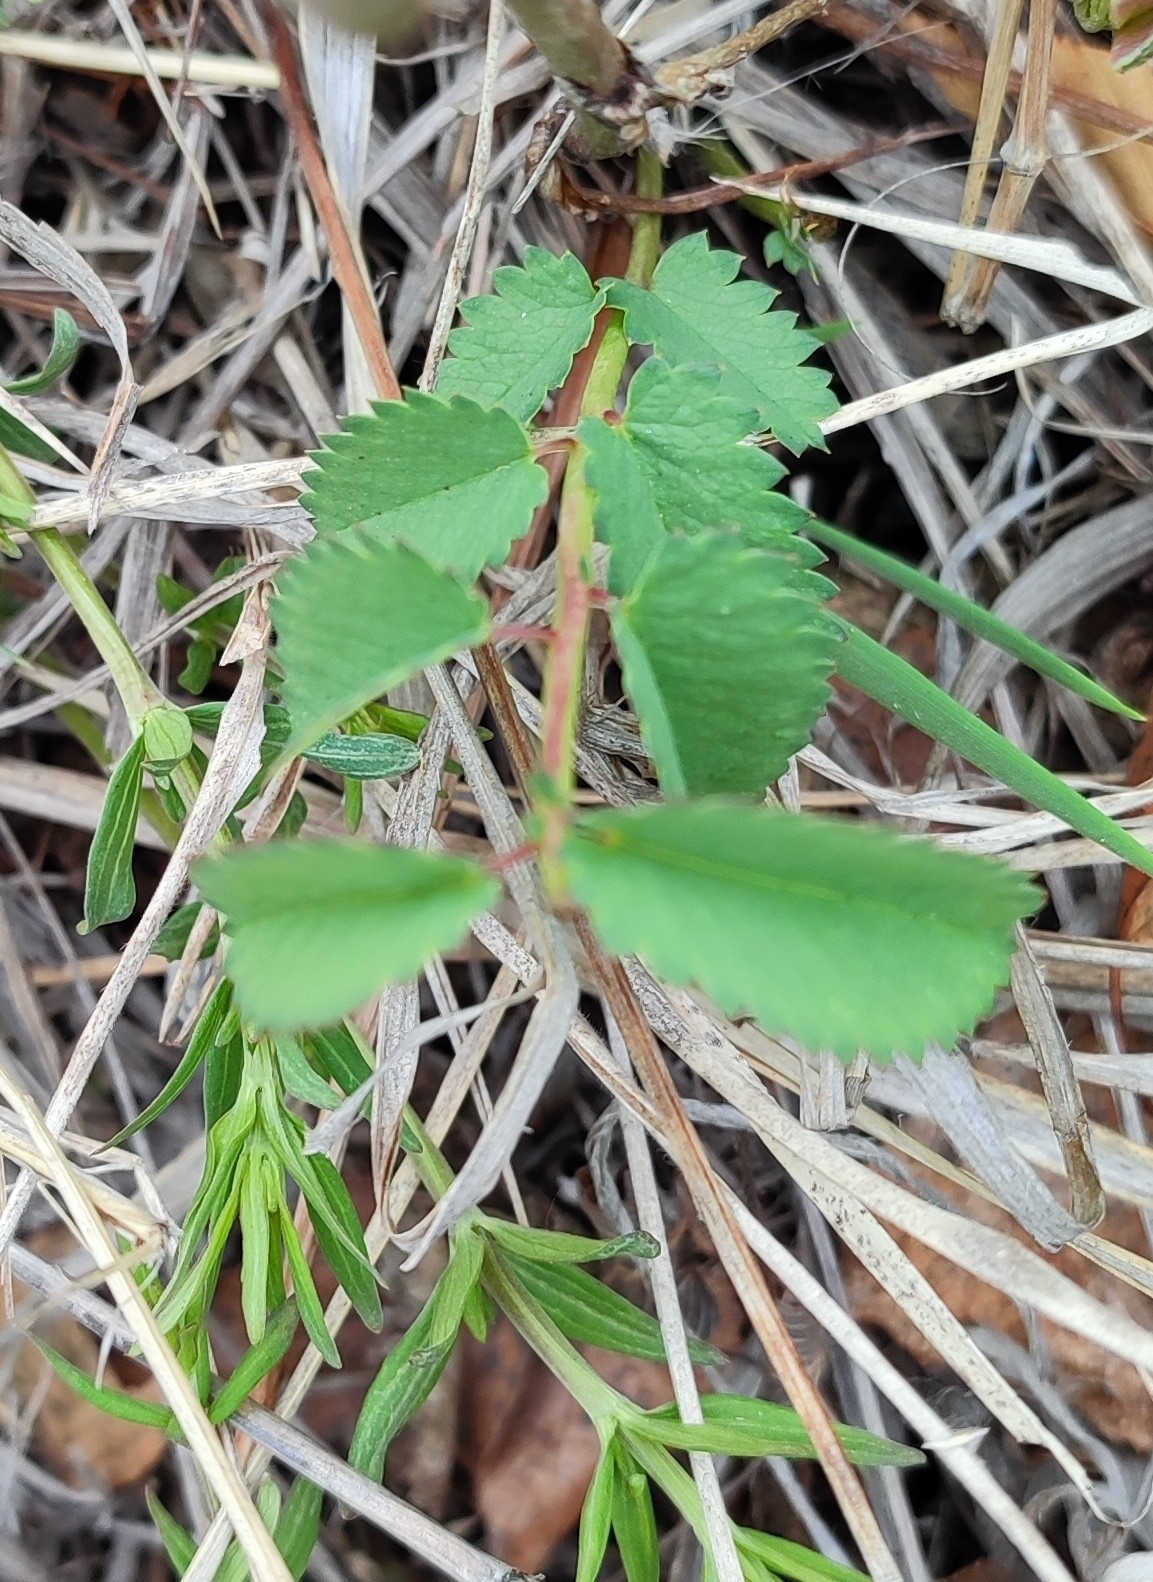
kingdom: Plantae
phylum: Tracheophyta
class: Magnoliopsida
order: Rosales
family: Rosaceae
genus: Sanguisorba
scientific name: Sanguisorba officinalis
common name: Great burnet
